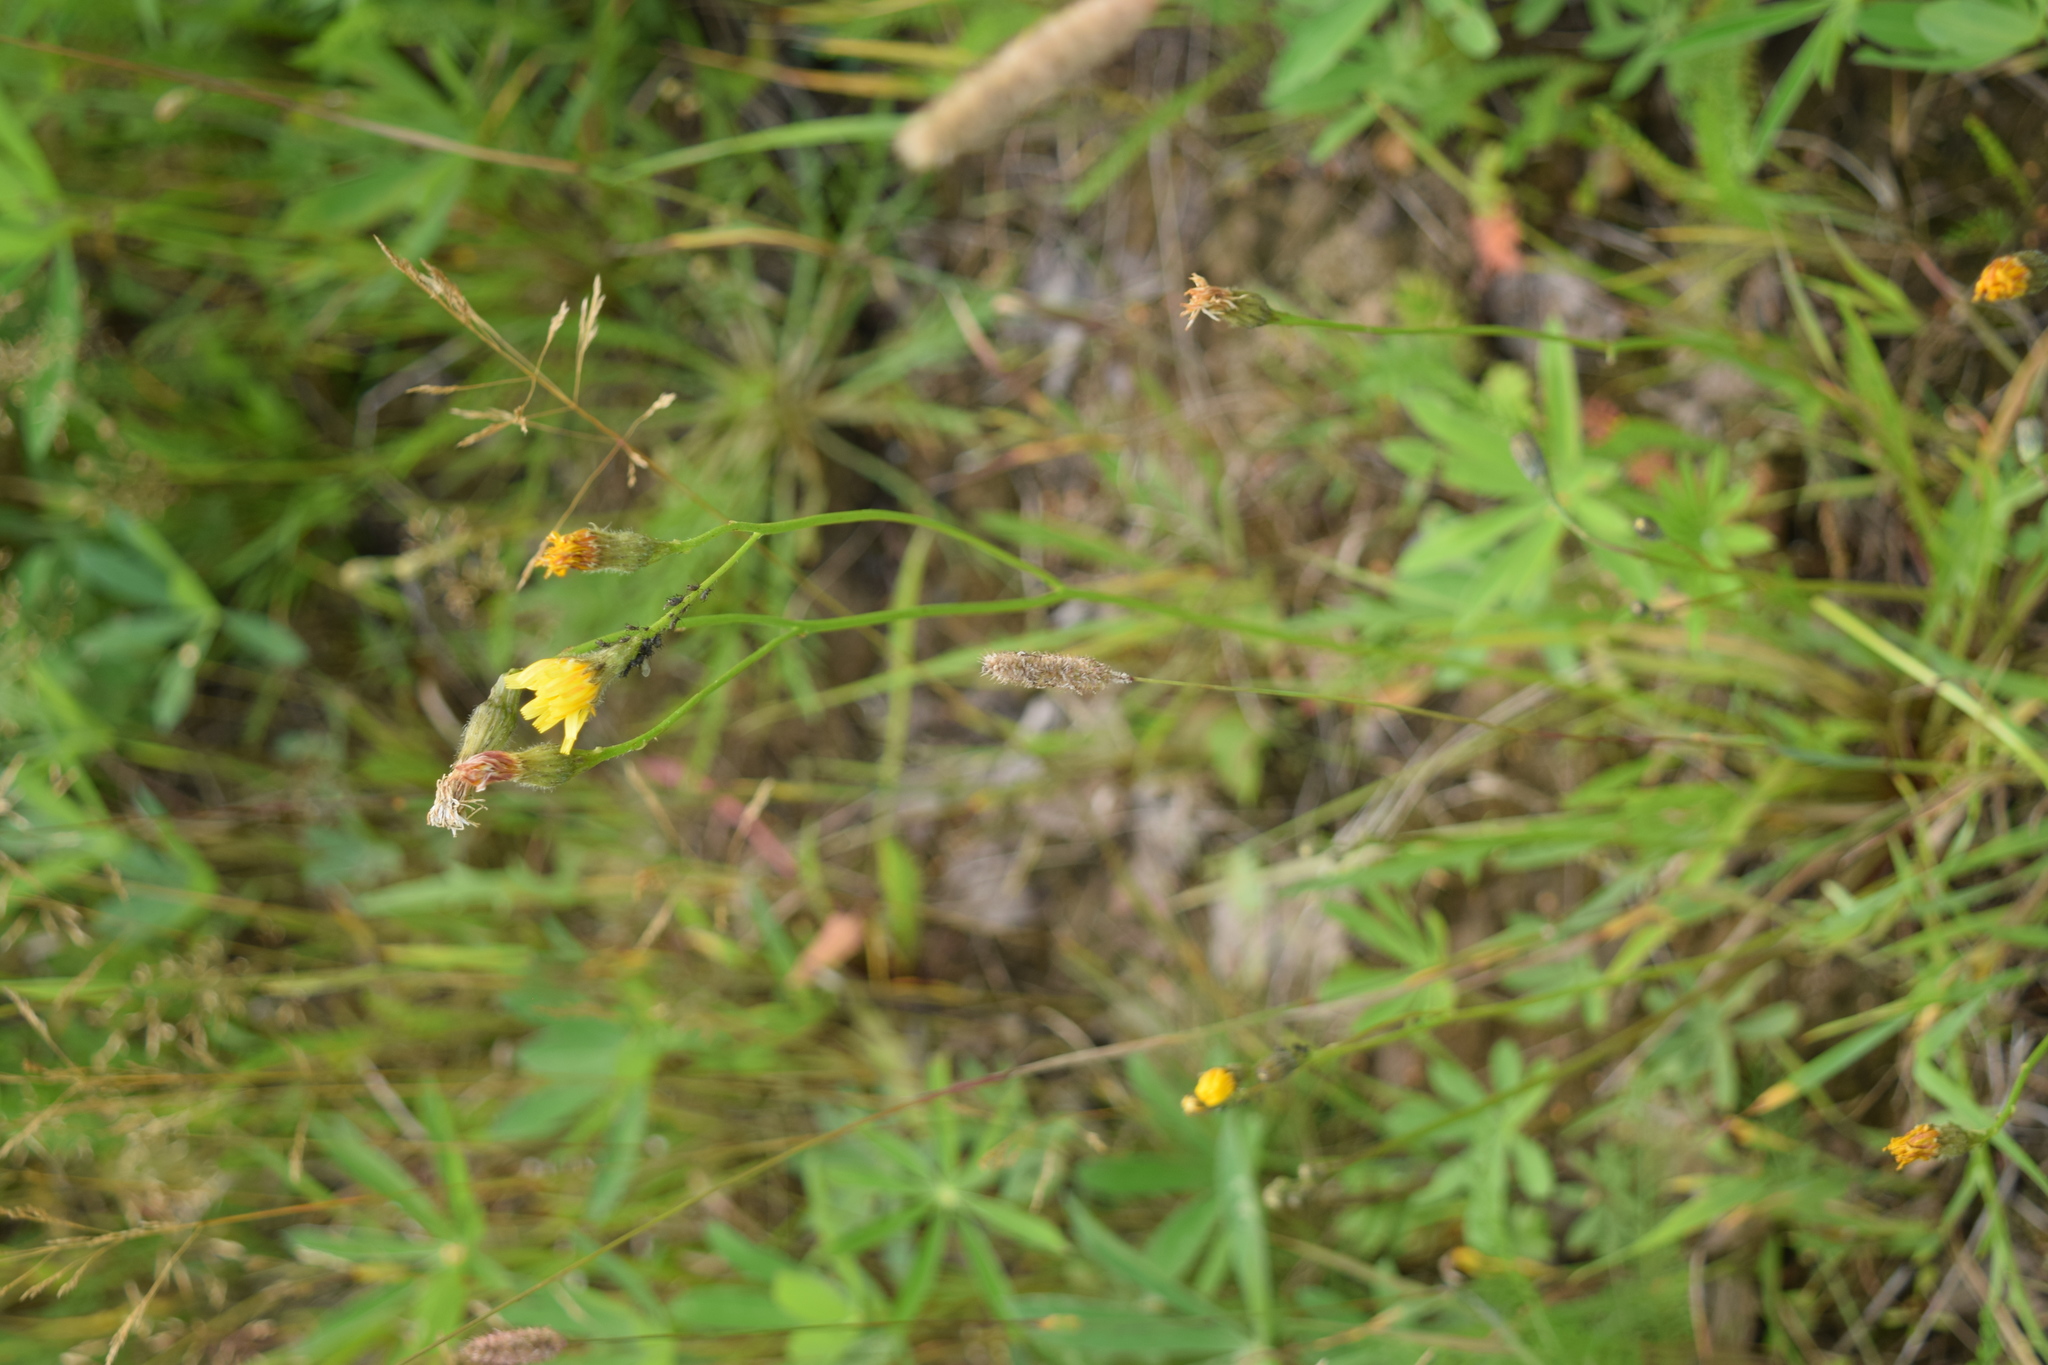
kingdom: Plantae
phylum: Tracheophyta
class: Magnoliopsida
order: Asterales
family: Asteraceae
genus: Scorzoneroides
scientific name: Scorzoneroides autumnalis
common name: Autumn hawkbit
